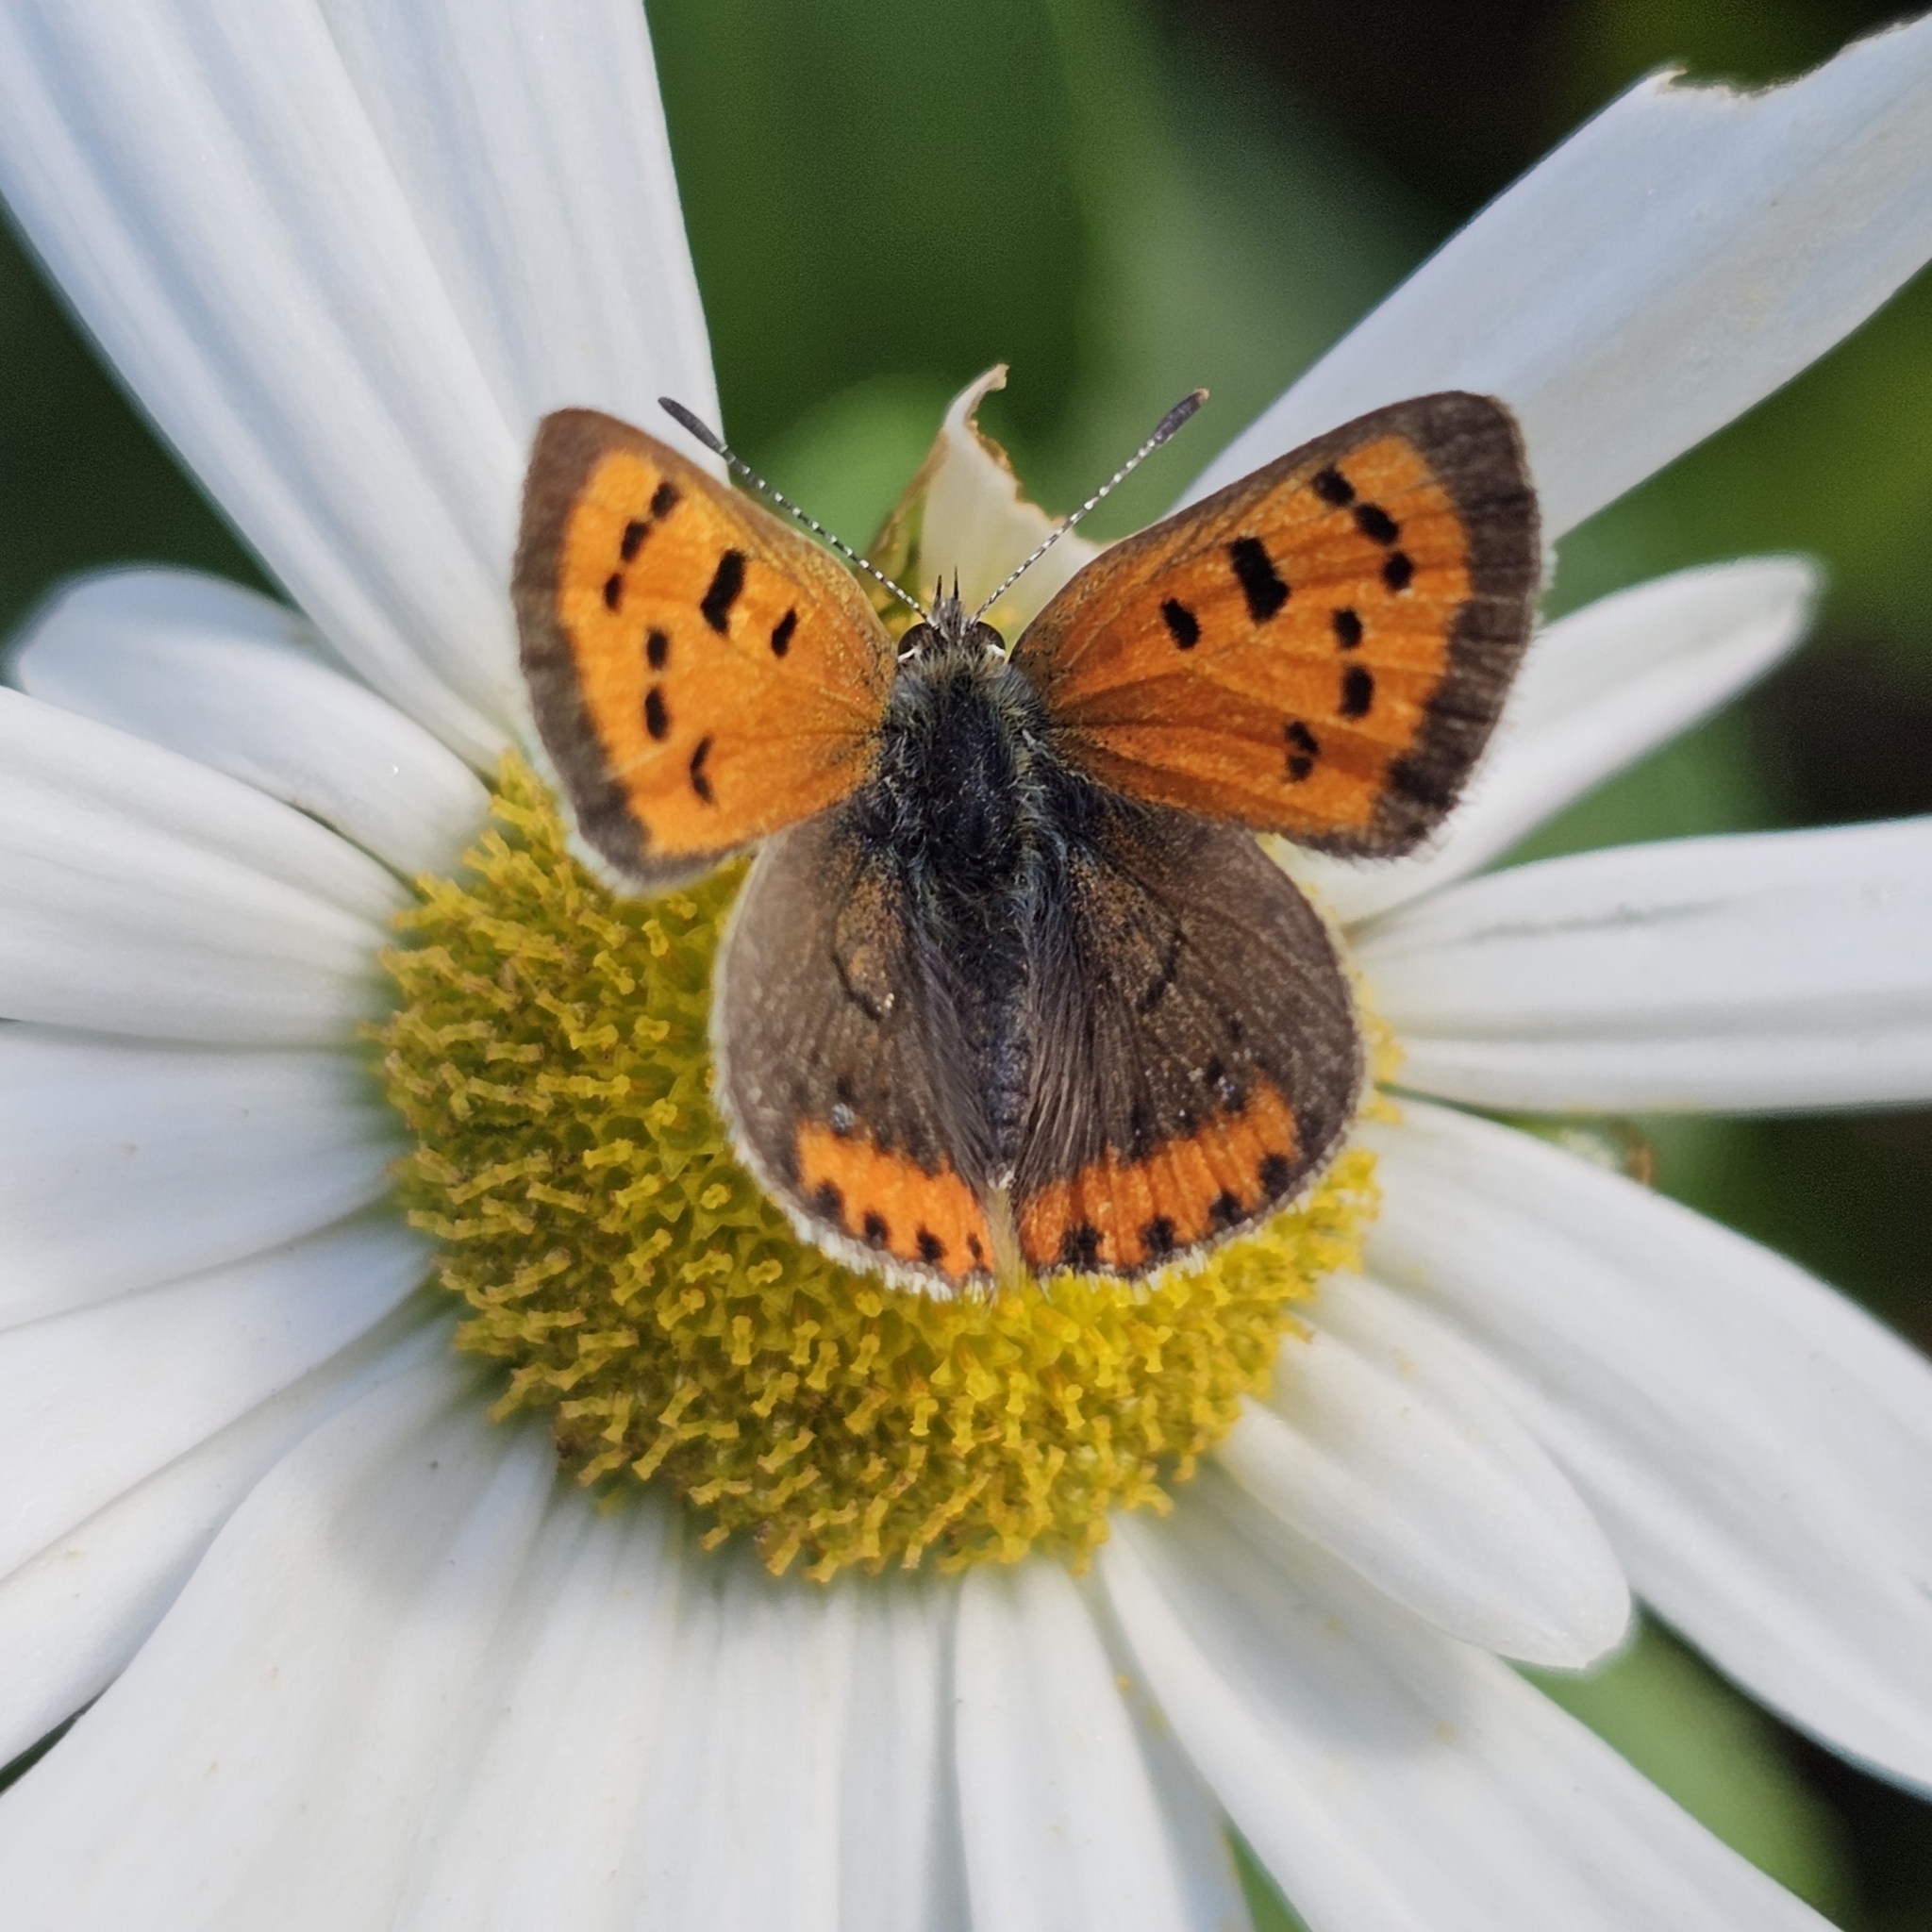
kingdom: Animalia
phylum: Arthropoda
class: Insecta
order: Lepidoptera
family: Lycaenidae
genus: Lycaena
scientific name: Lycaena hypophlaeas
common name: American copper
